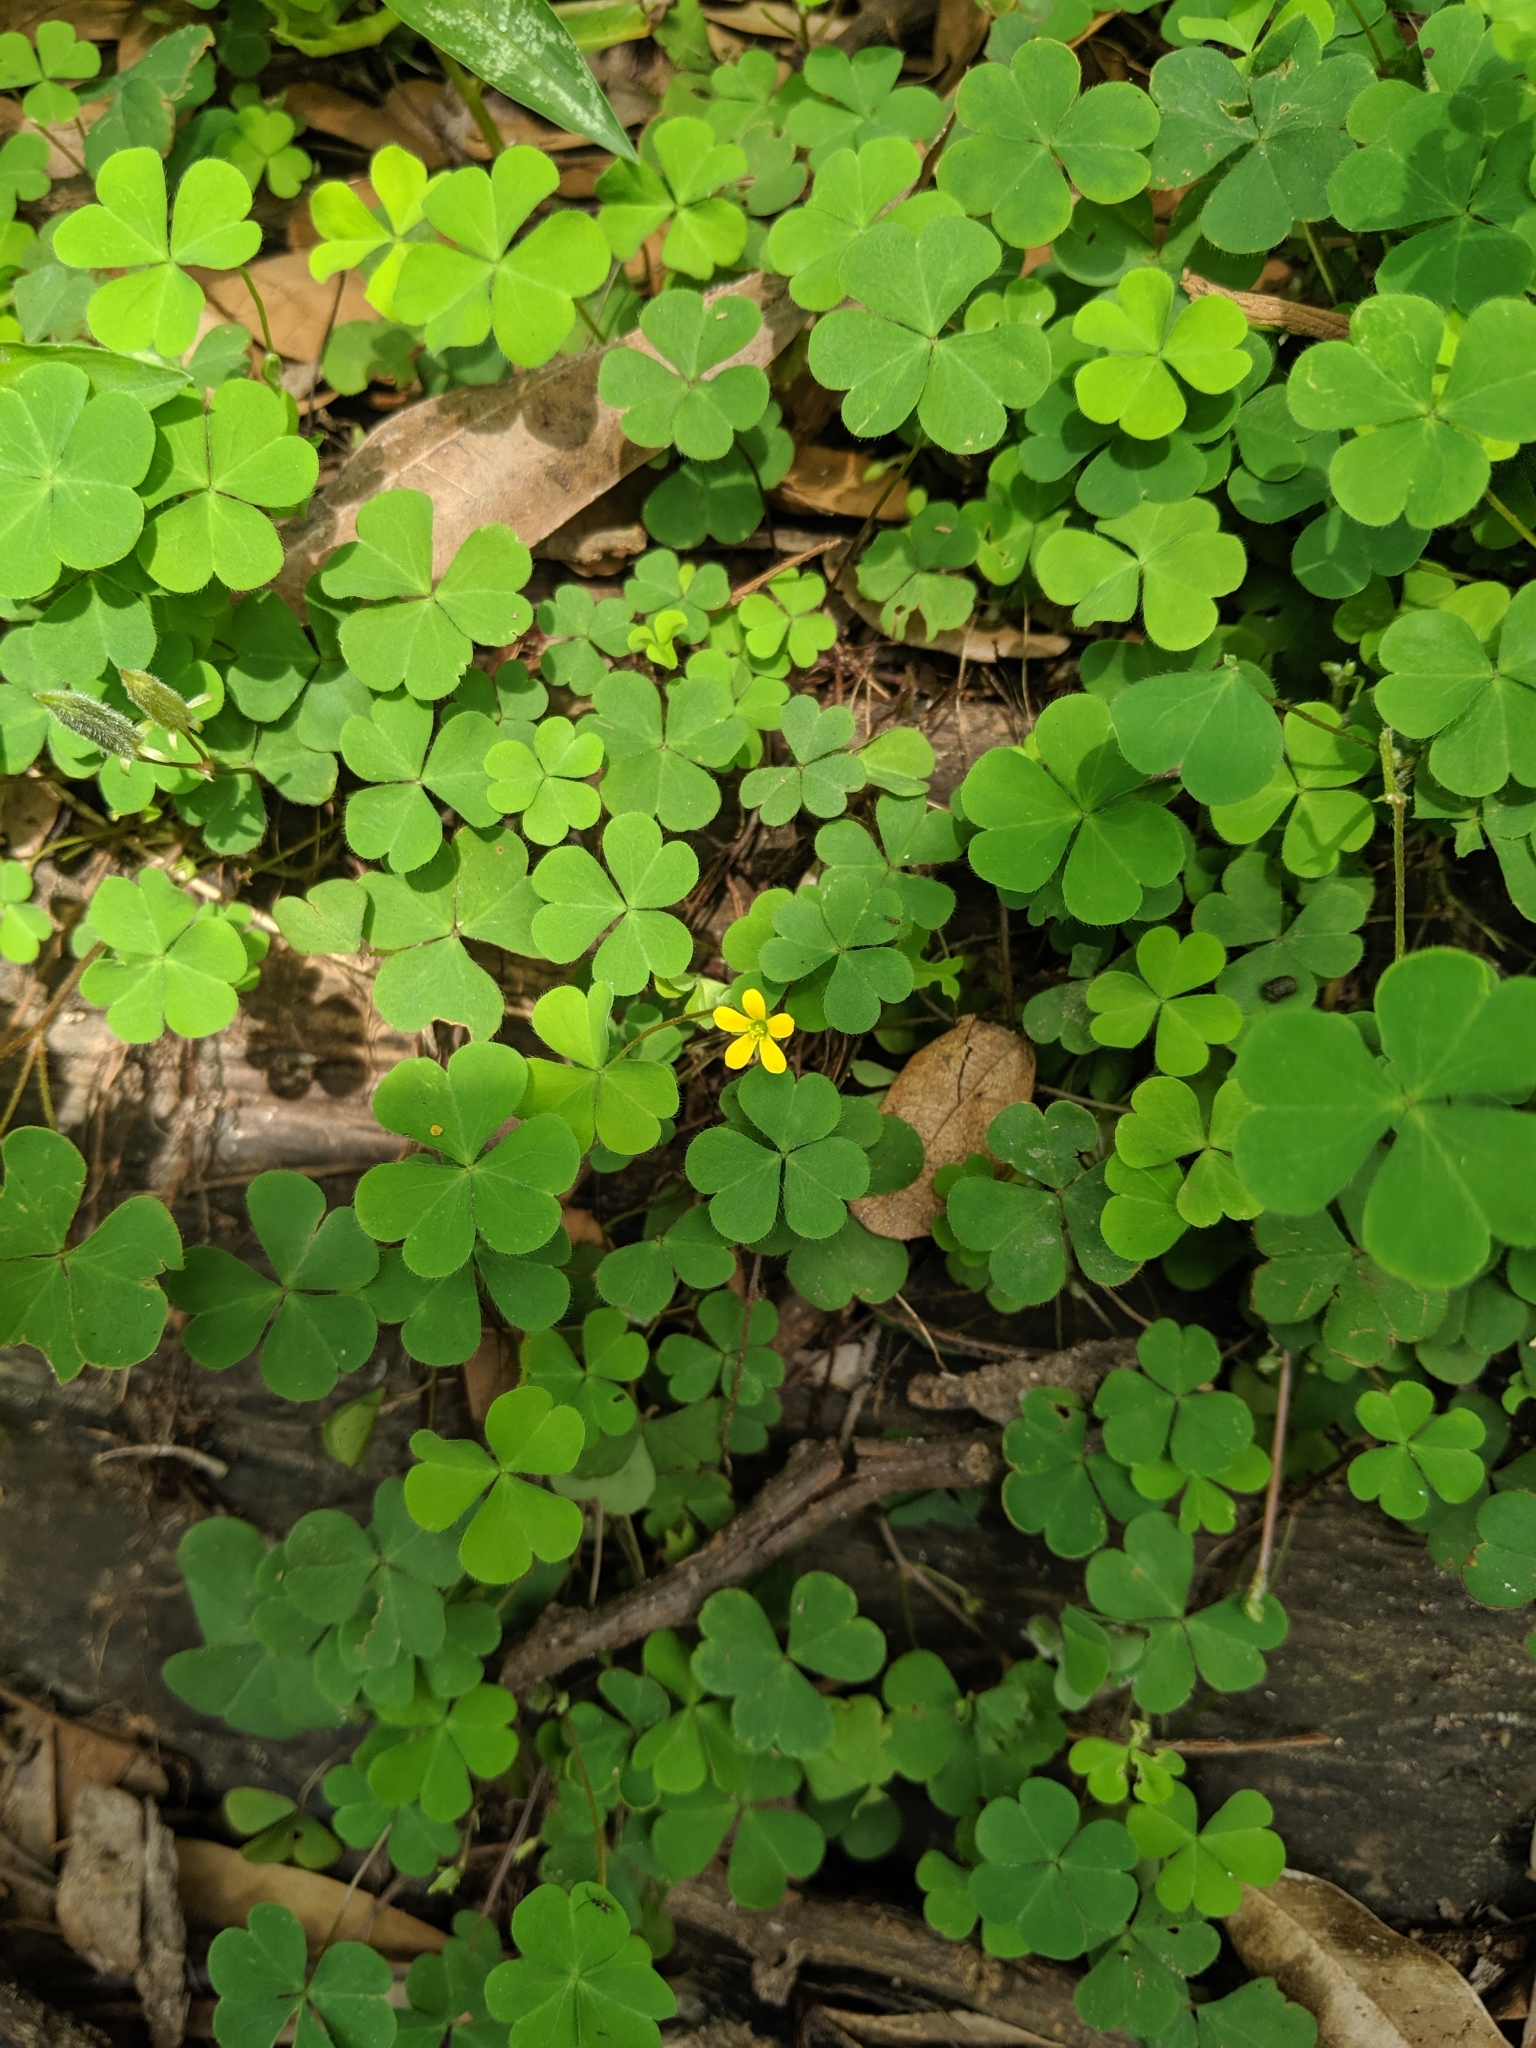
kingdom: Plantae
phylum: Tracheophyta
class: Magnoliopsida
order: Oxalidales
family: Oxalidaceae
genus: Oxalis
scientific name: Oxalis corniculata
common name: Procumbent yellow-sorrel
